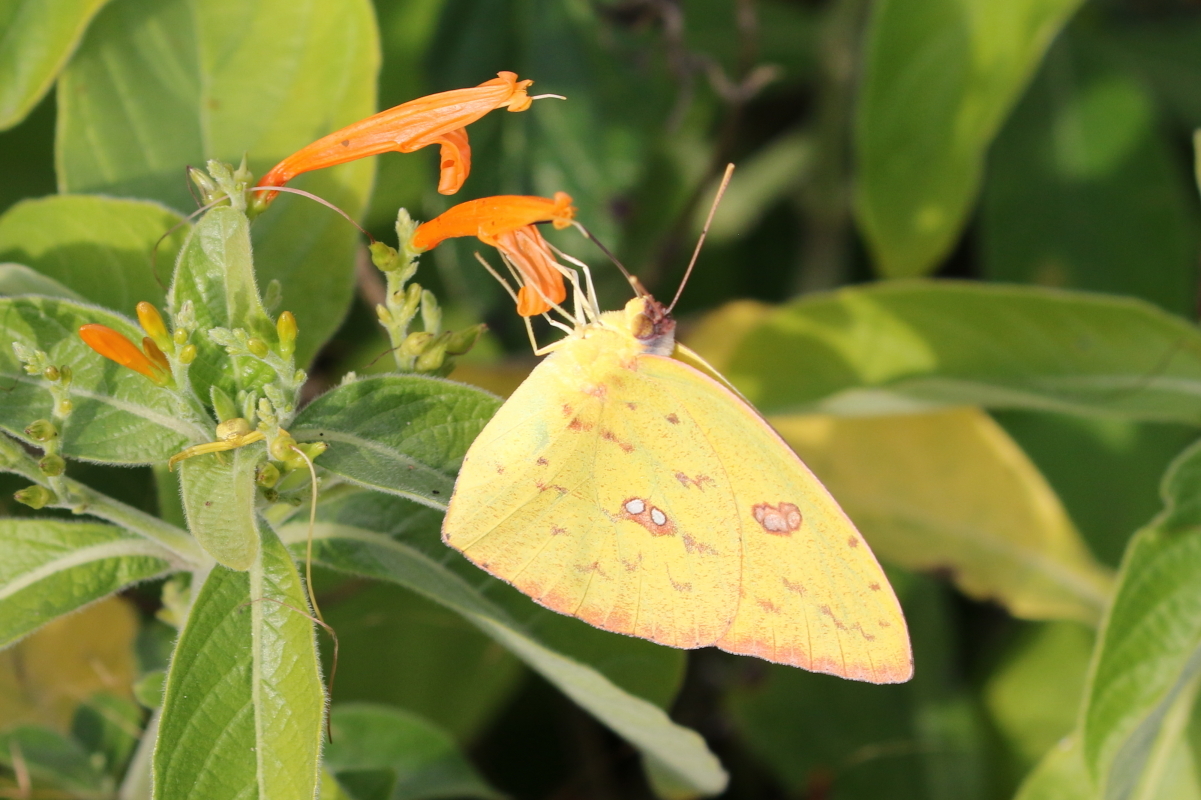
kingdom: Animalia
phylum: Arthropoda
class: Insecta
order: Lepidoptera
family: Pieridae
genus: Phoebis
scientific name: Phoebis sennae
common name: Cloudless sulphur
